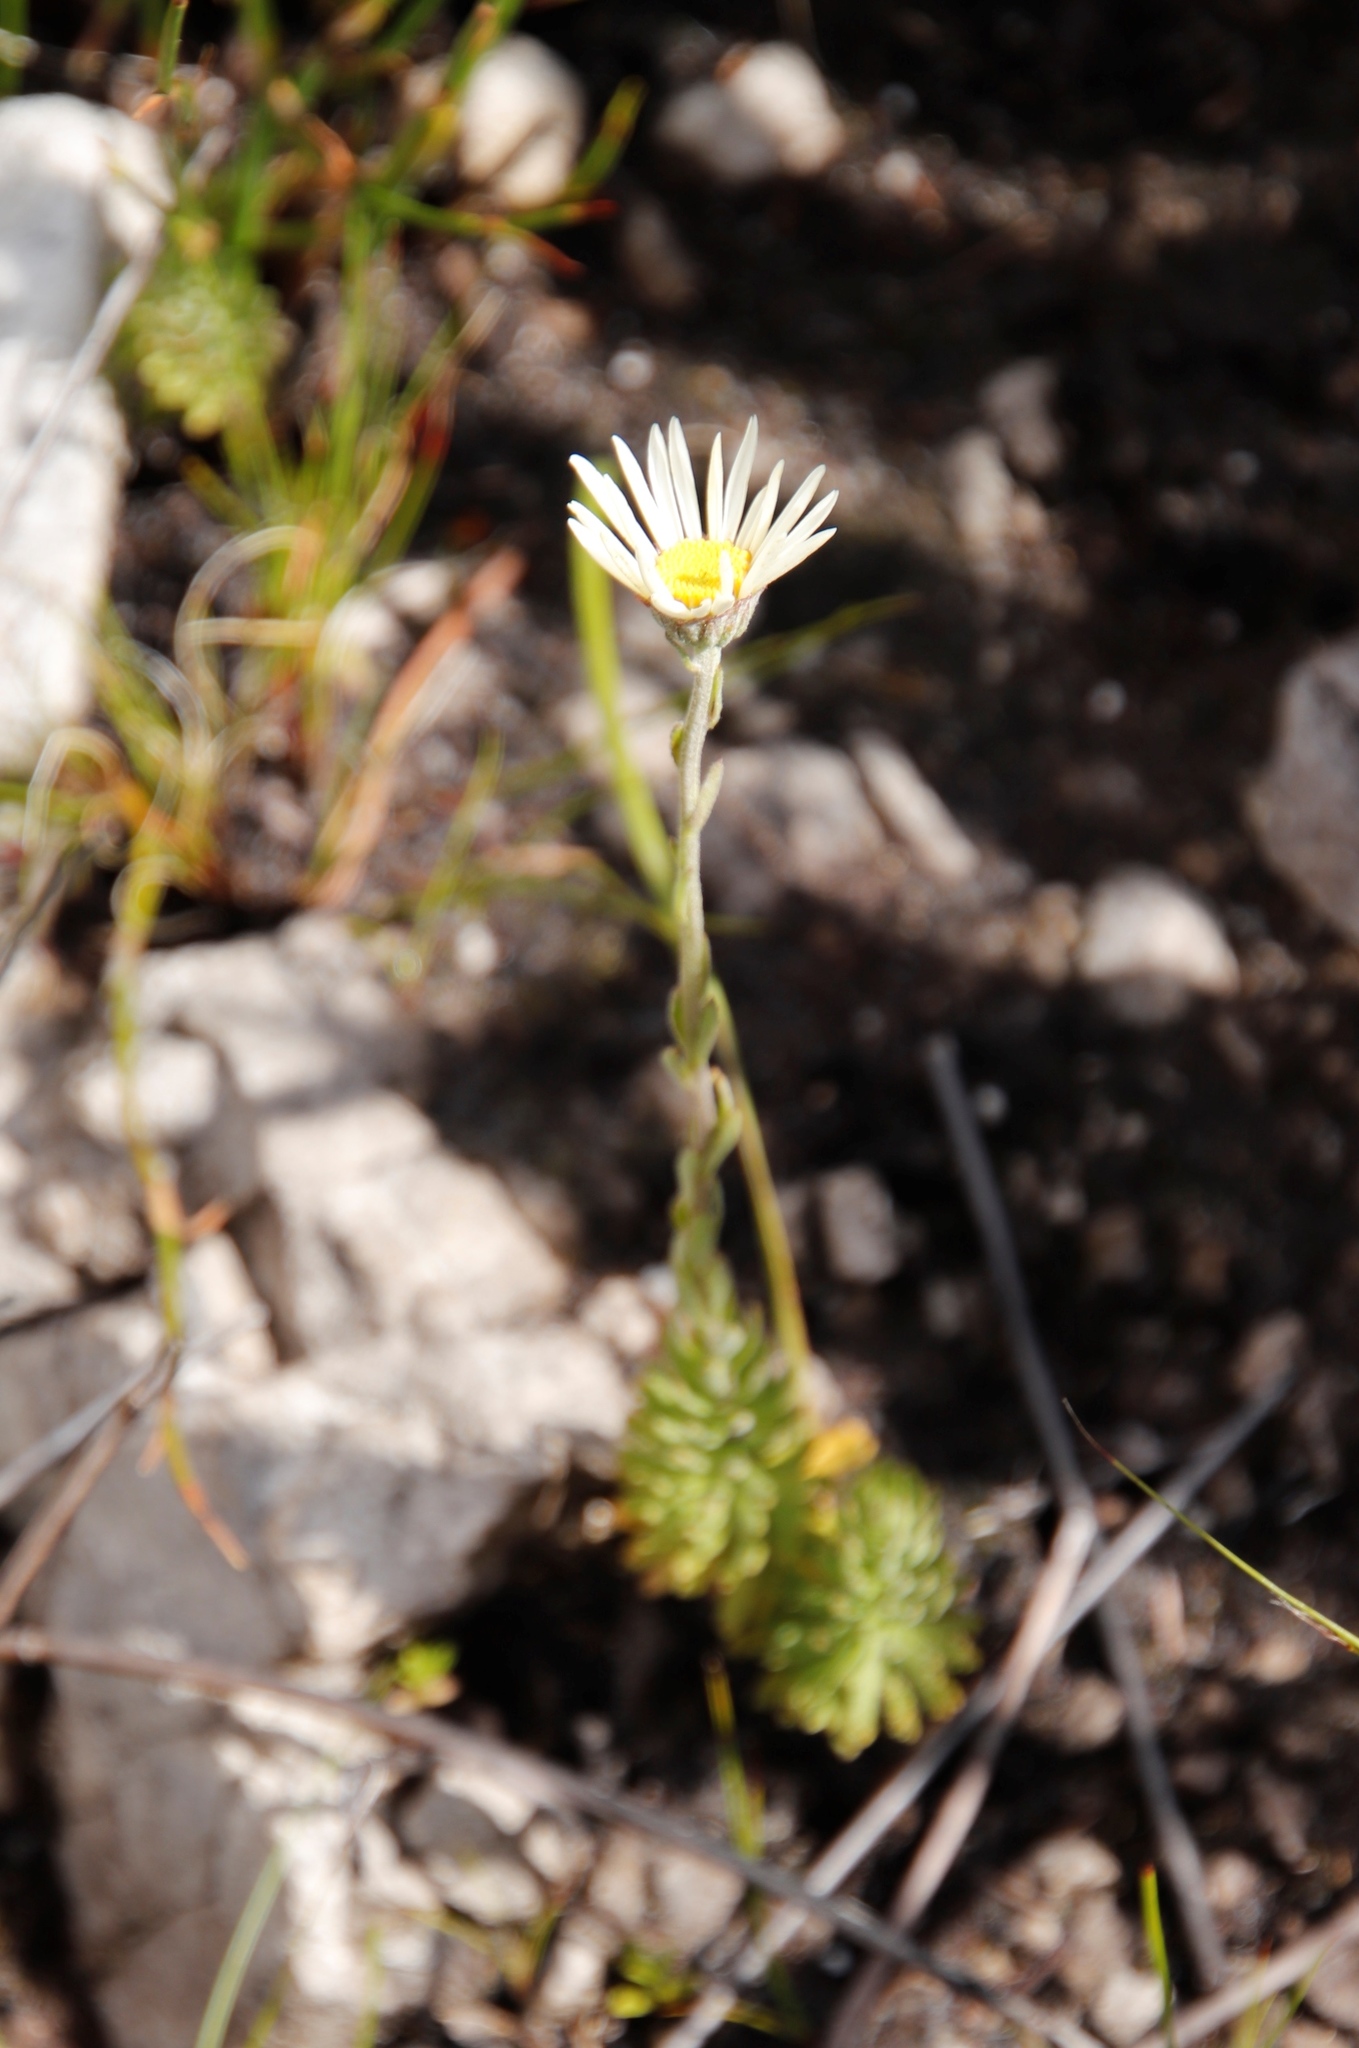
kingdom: Plantae
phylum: Tracheophyta
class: Magnoliopsida
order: Asterales
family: Asteraceae
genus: Osmitopsis
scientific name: Osmitopsis afra
